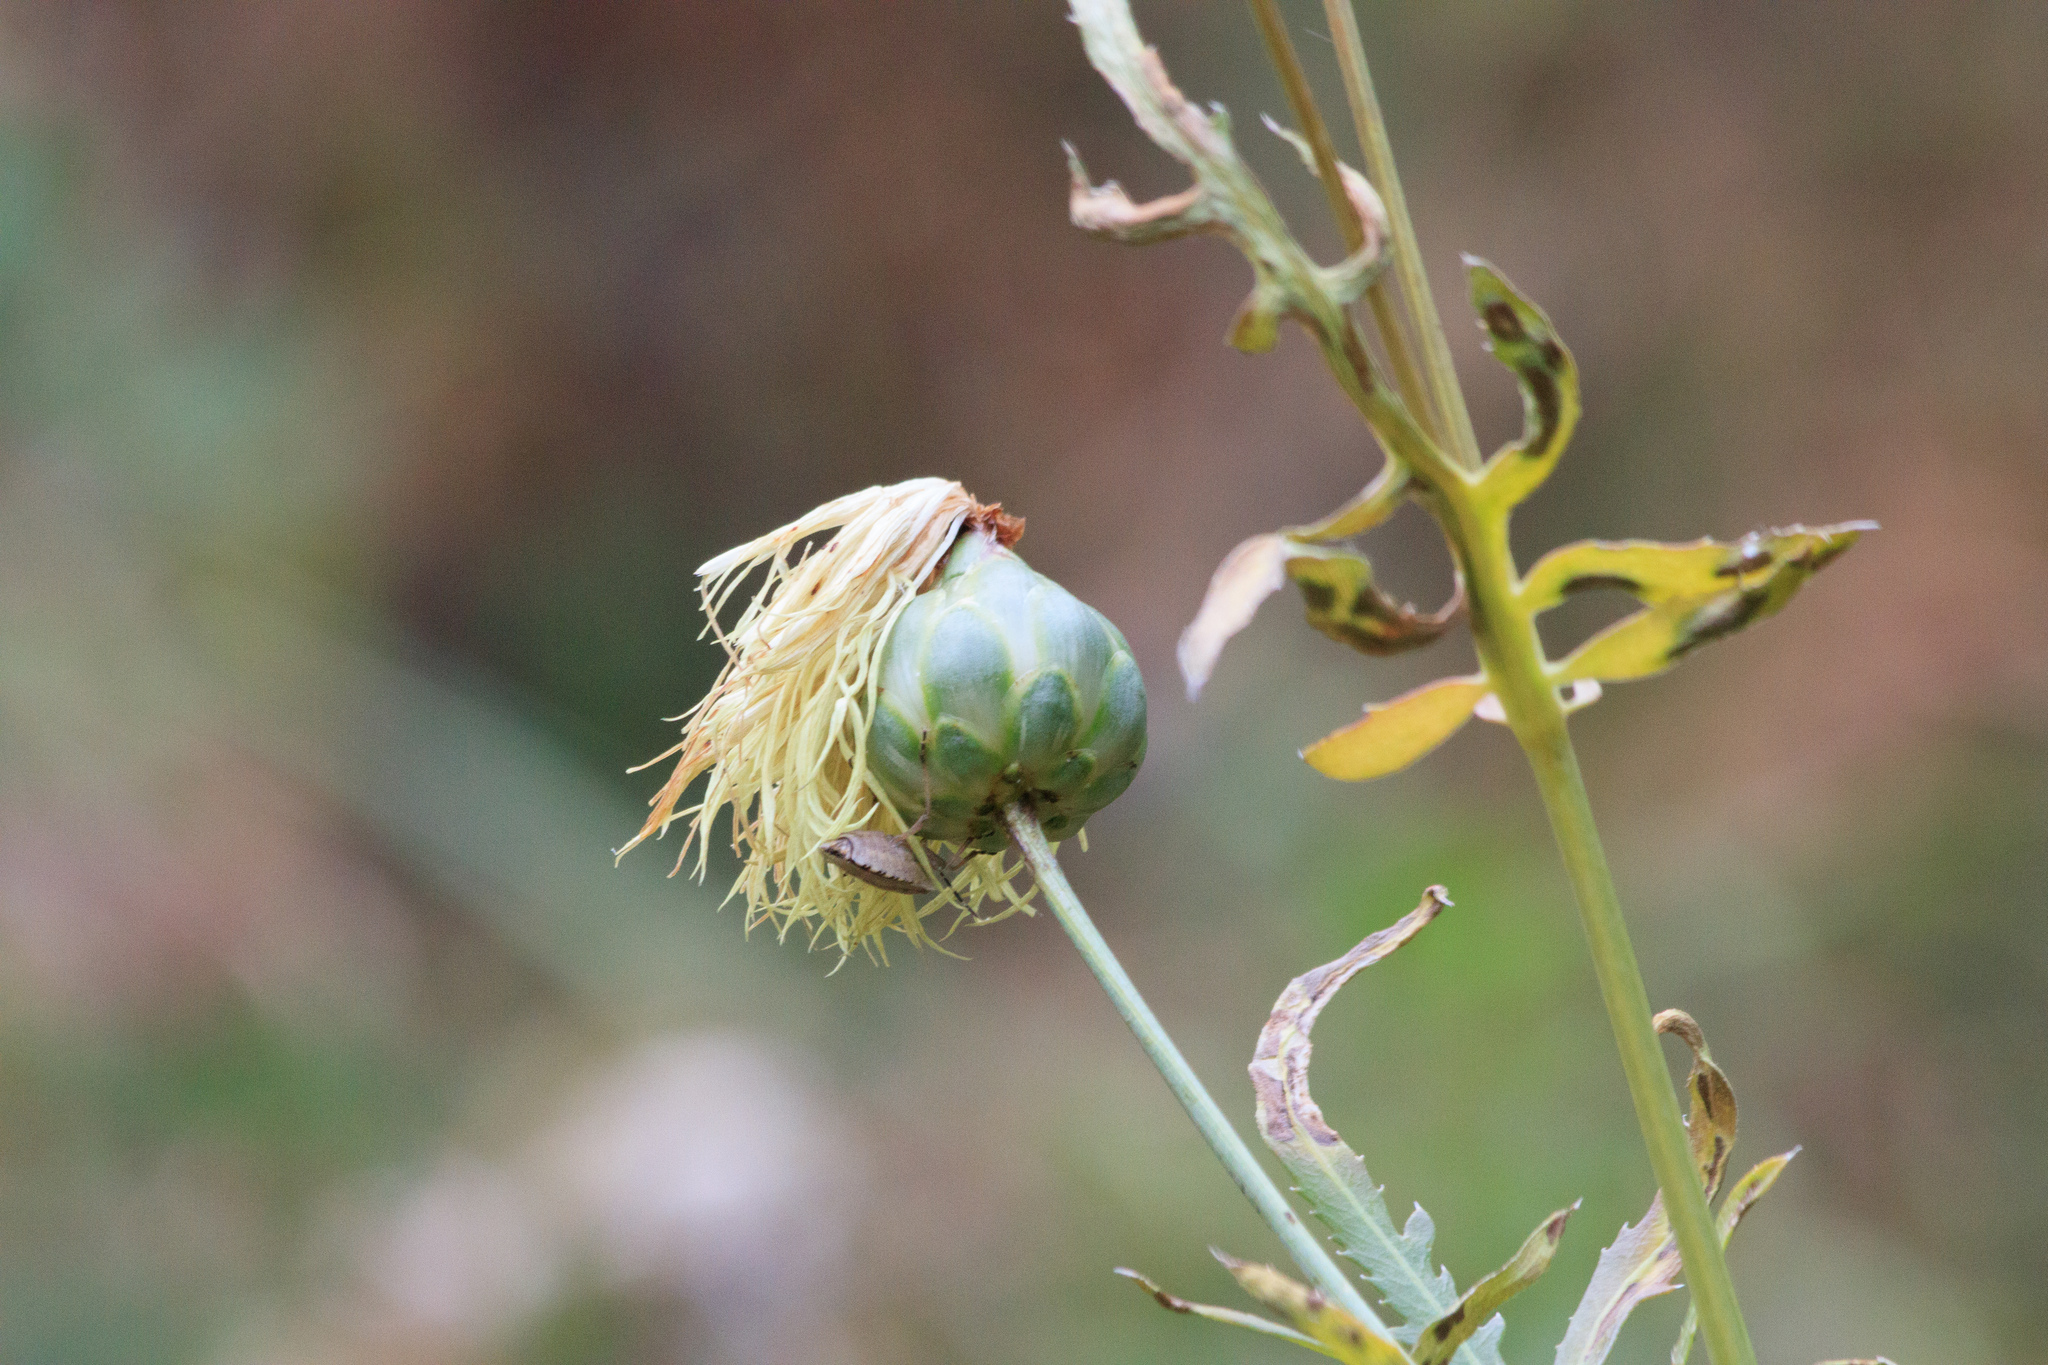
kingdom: Plantae
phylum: Tracheophyta
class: Magnoliopsida
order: Asterales
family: Asteraceae
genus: Rhaponticoides
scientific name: Rhaponticoides ruthenica
